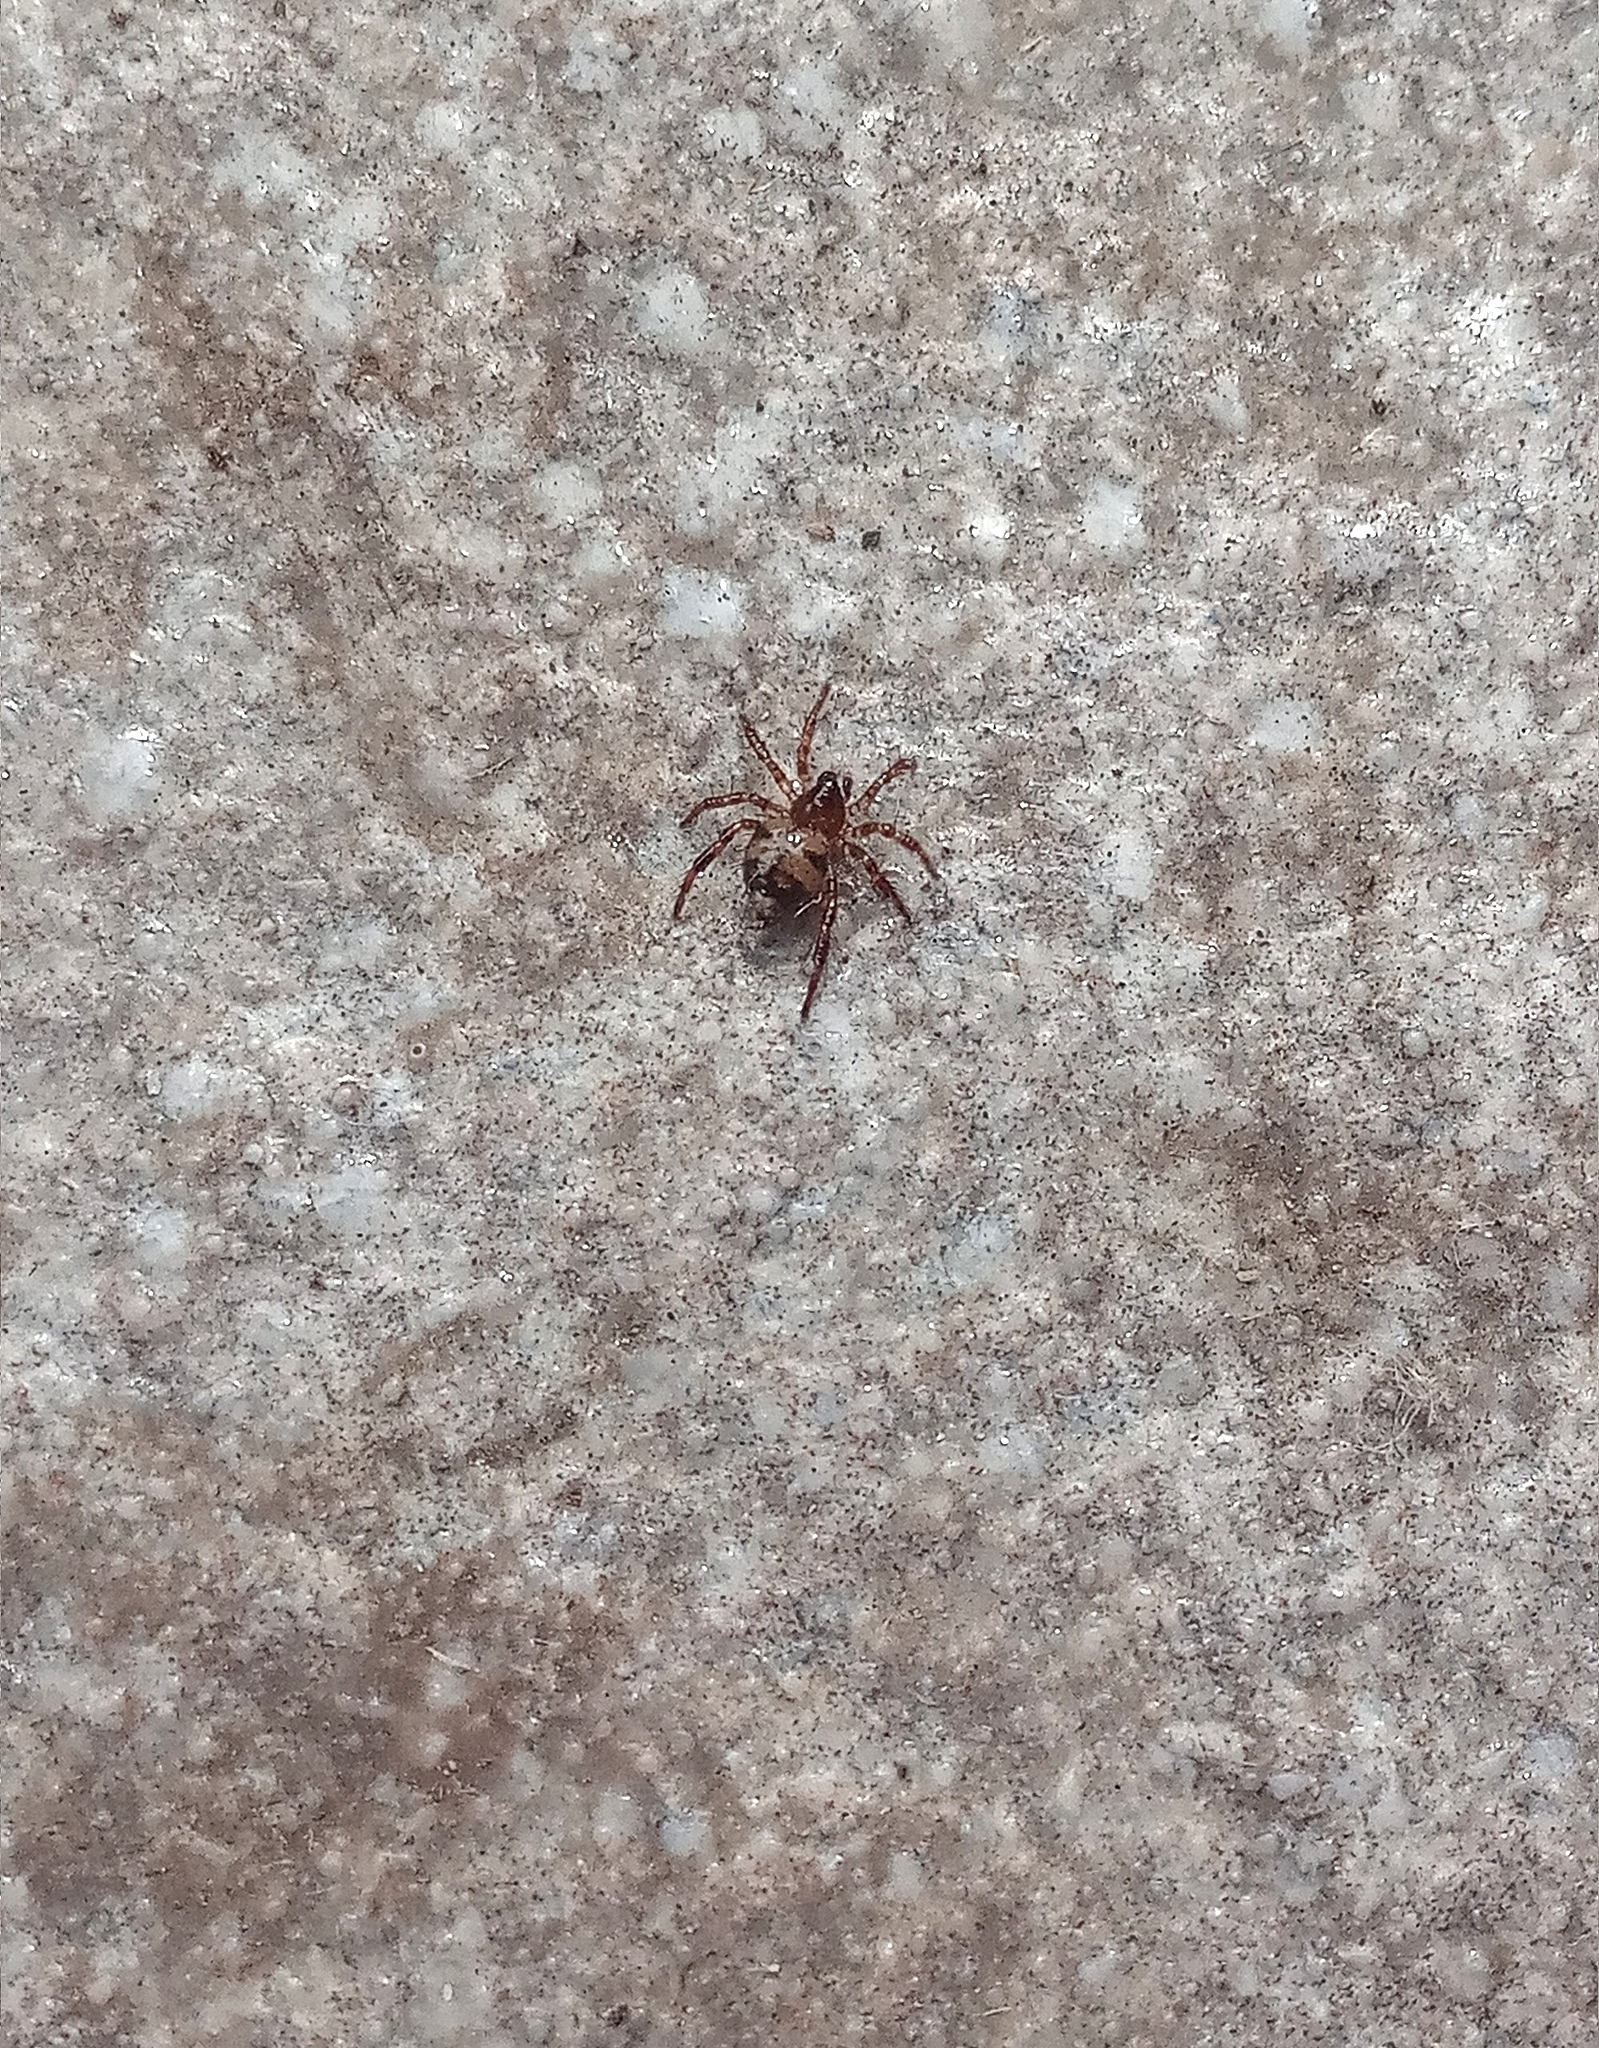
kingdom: Animalia
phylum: Arthropoda
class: Arachnida
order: Araneae
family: Theridiidae
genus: Euryopis
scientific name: Euryopis spinifera
